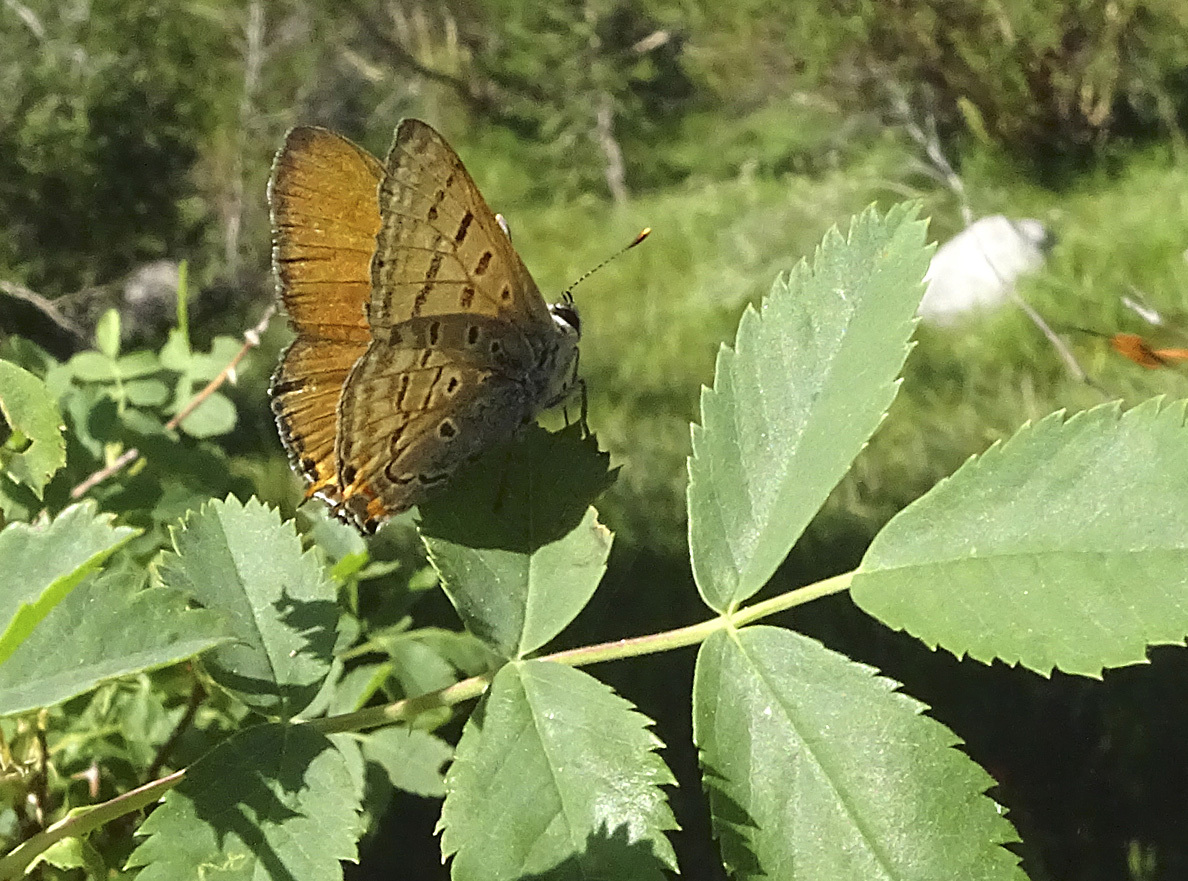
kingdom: Animalia
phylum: Arthropoda
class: Insecta
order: Lepidoptera
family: Lycaenidae
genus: Tharsalea
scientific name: Tharsalea arota
